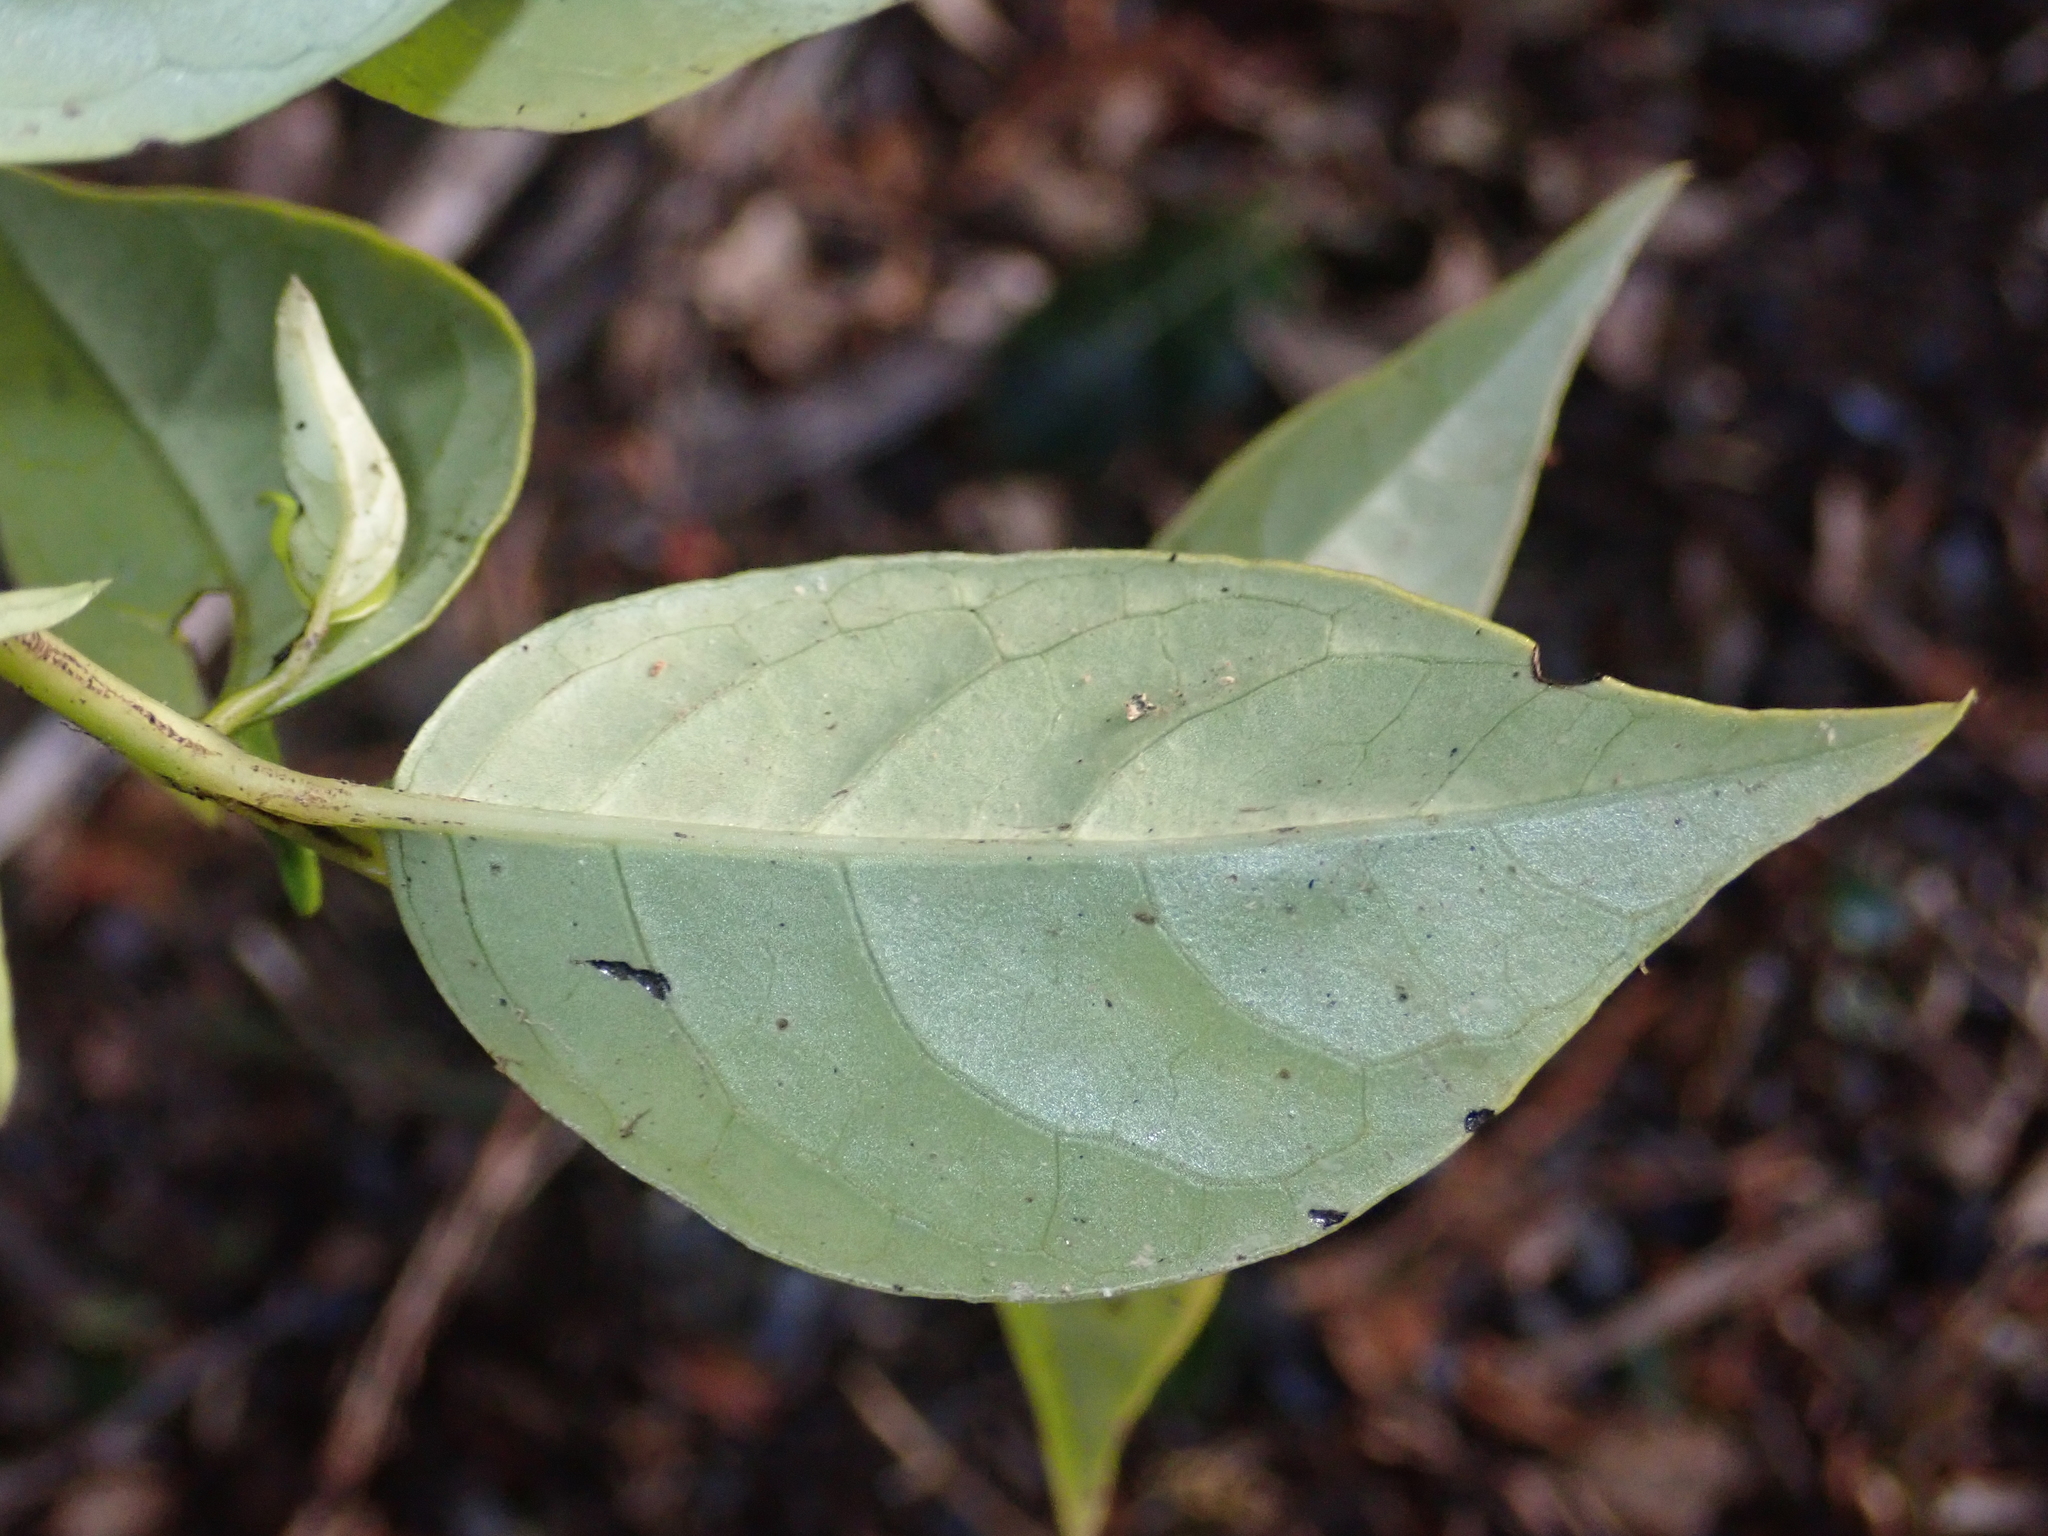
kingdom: Plantae
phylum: Tracheophyta
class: Magnoliopsida
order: Gentianales
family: Loganiaceae
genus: Geniostoma
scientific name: Geniostoma ligustrifolium
